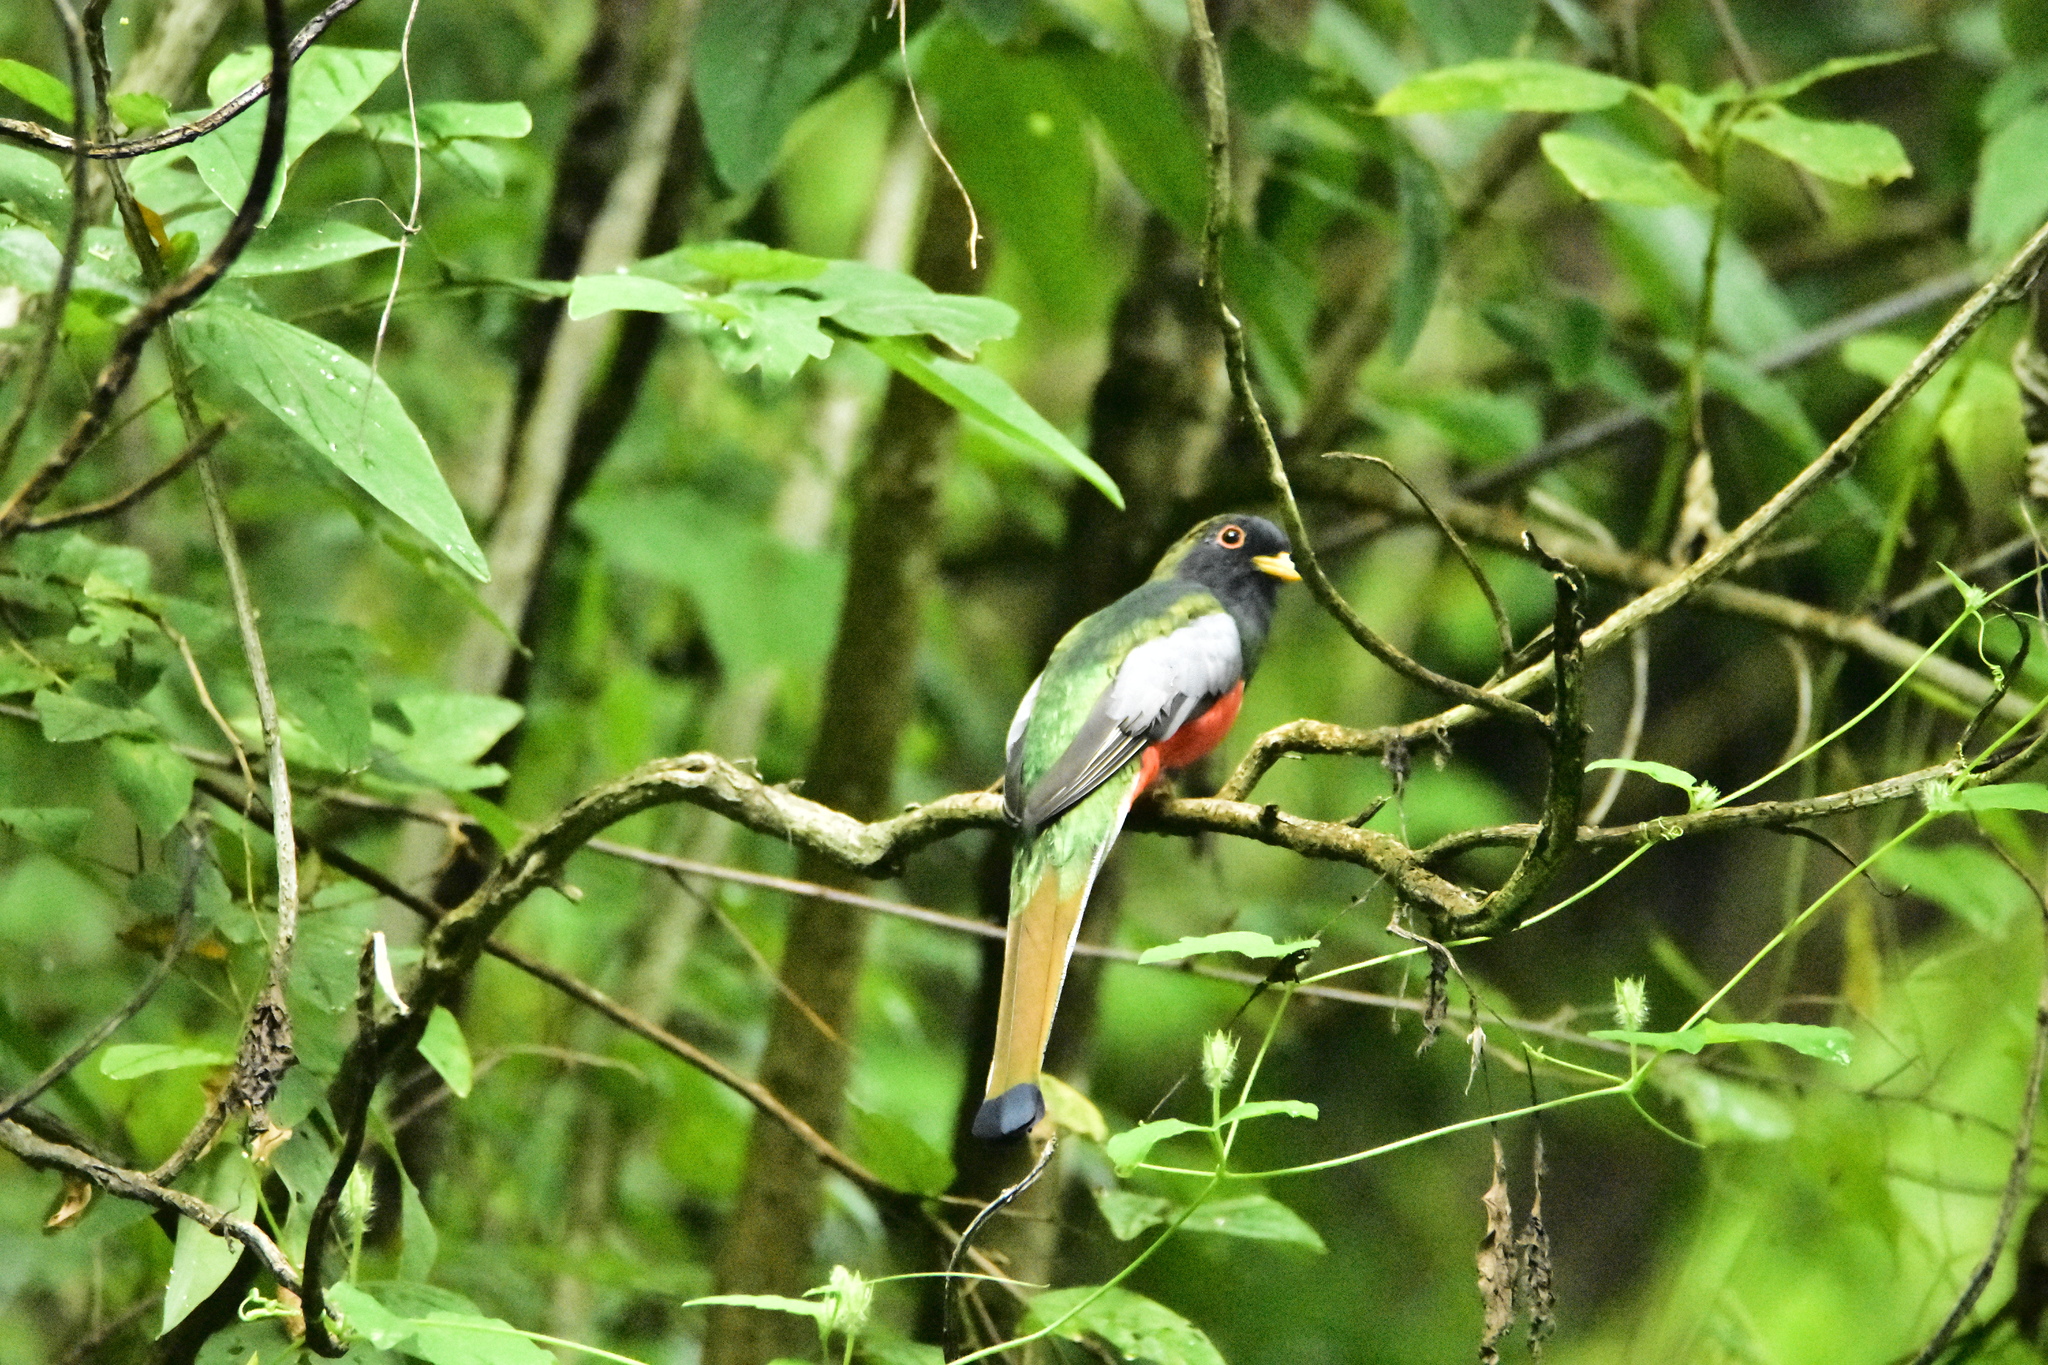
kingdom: Animalia
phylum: Chordata
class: Aves
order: Trogoniformes
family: Trogonidae
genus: Trogon
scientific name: Trogon elegans
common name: Elegant trogon
